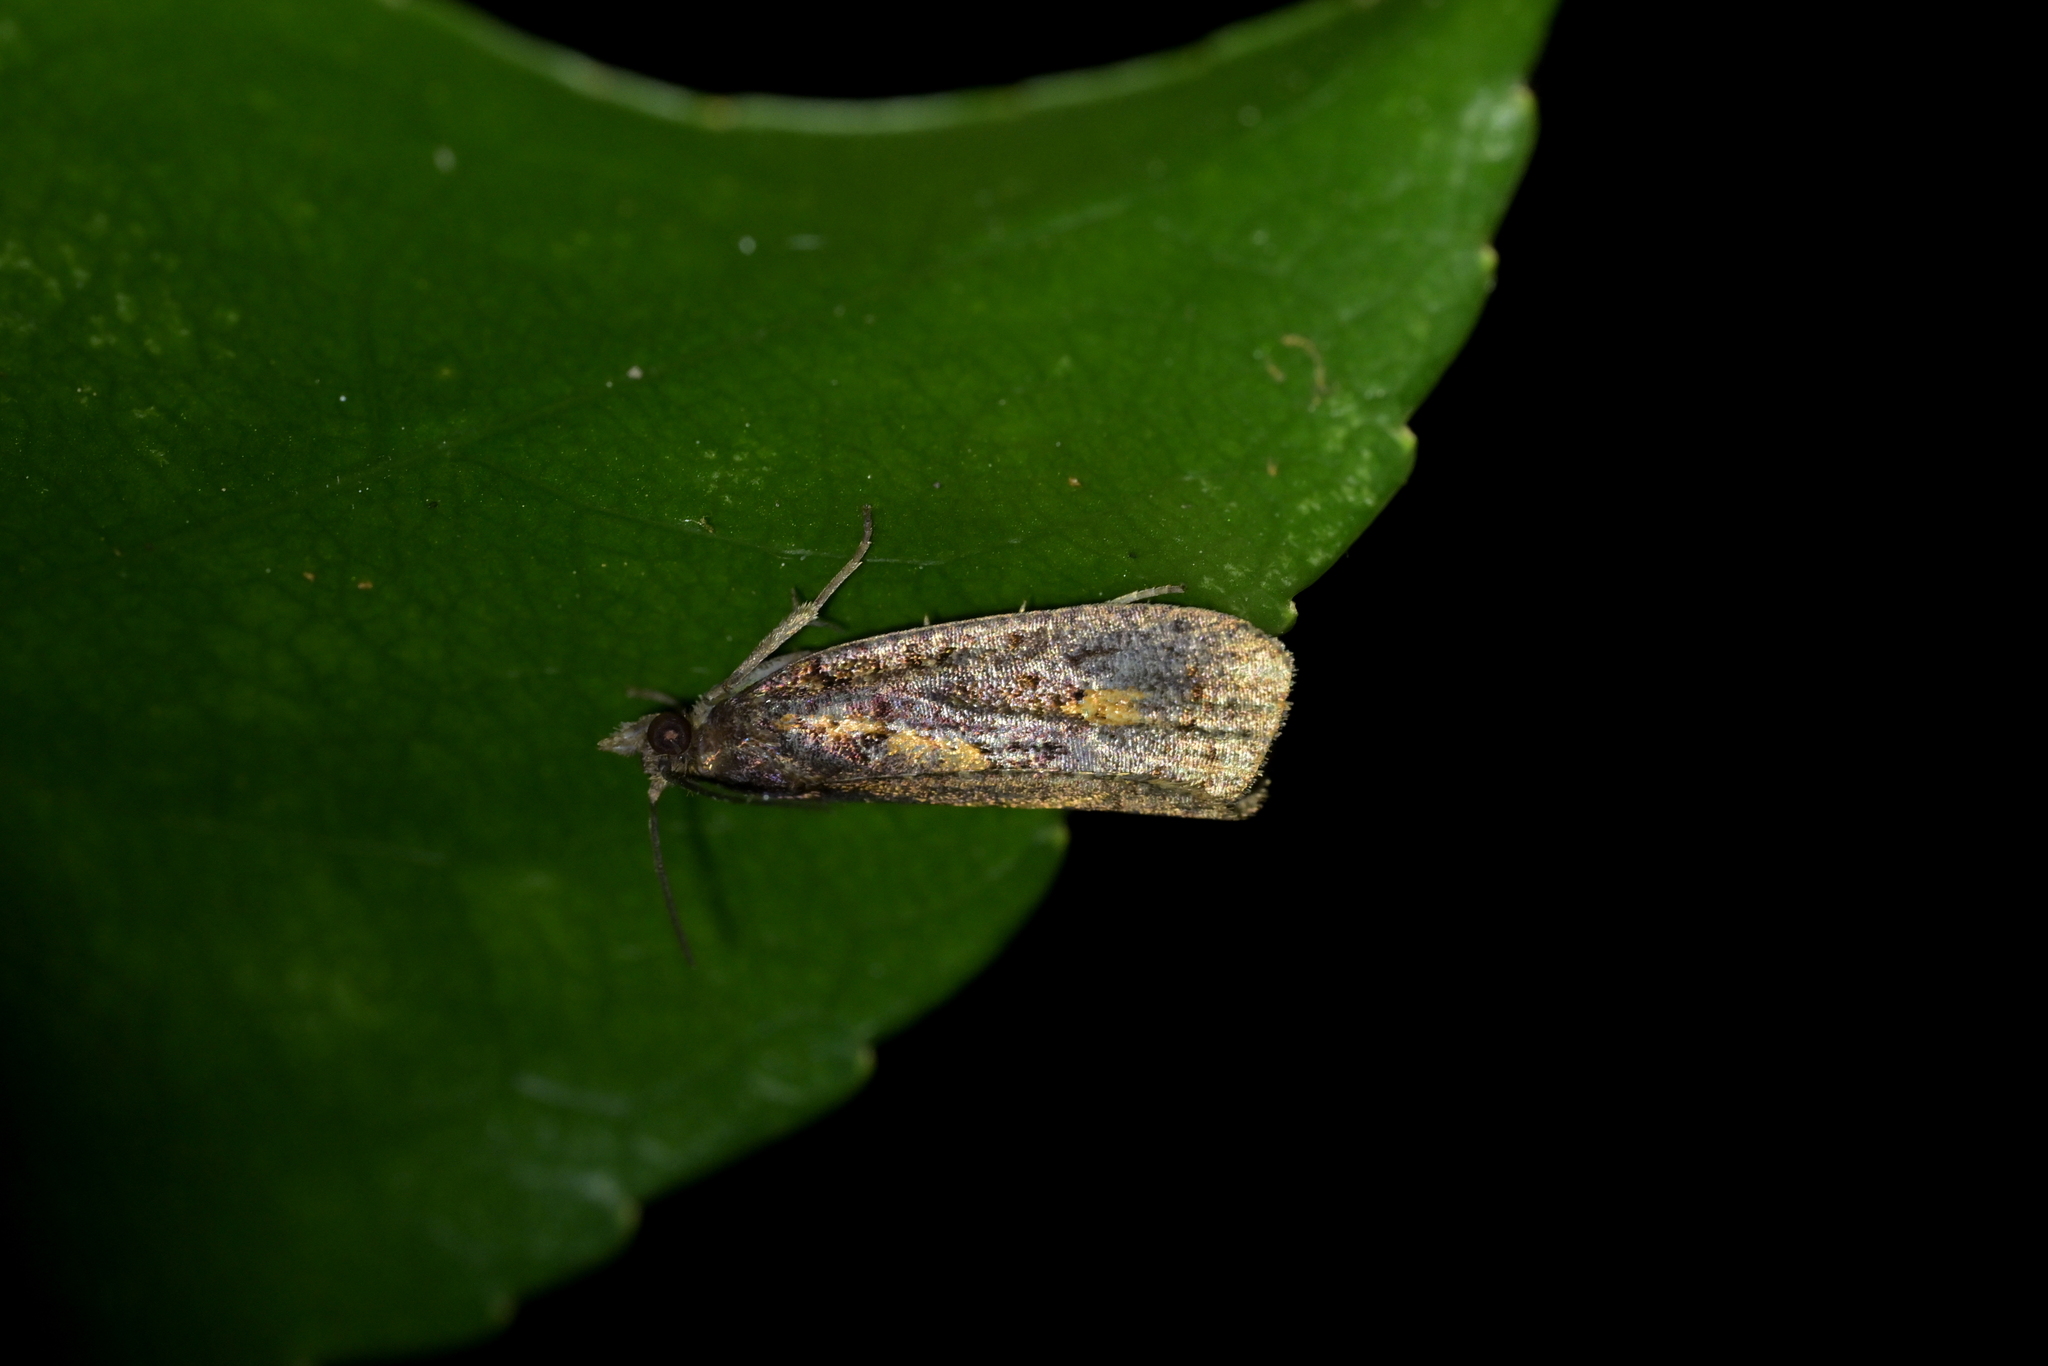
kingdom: Animalia
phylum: Arthropoda
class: Insecta
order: Lepidoptera
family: Tortricidae
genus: Cryptaspasma
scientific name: Cryptaspasma querula
